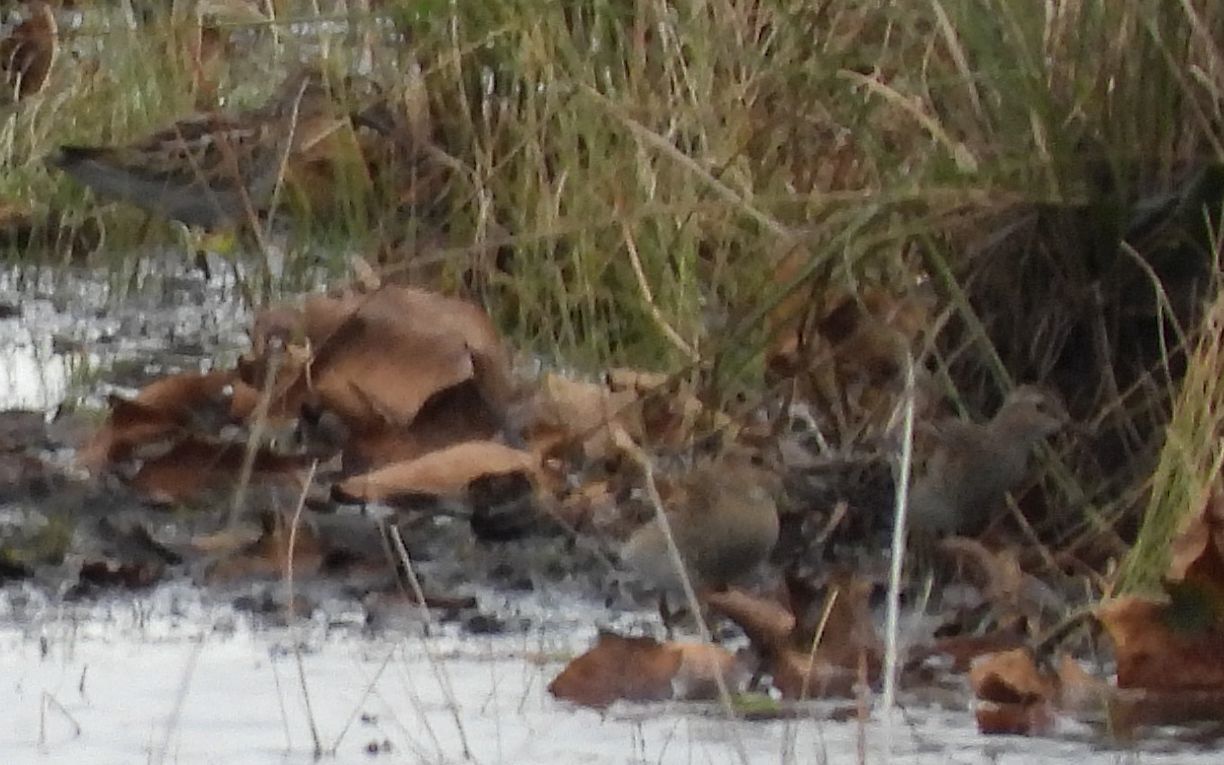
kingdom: Animalia
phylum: Chordata
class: Aves
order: Charadriiformes
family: Scolopacidae
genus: Calidris
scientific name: Calidris melanotos
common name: Pectoral sandpiper
